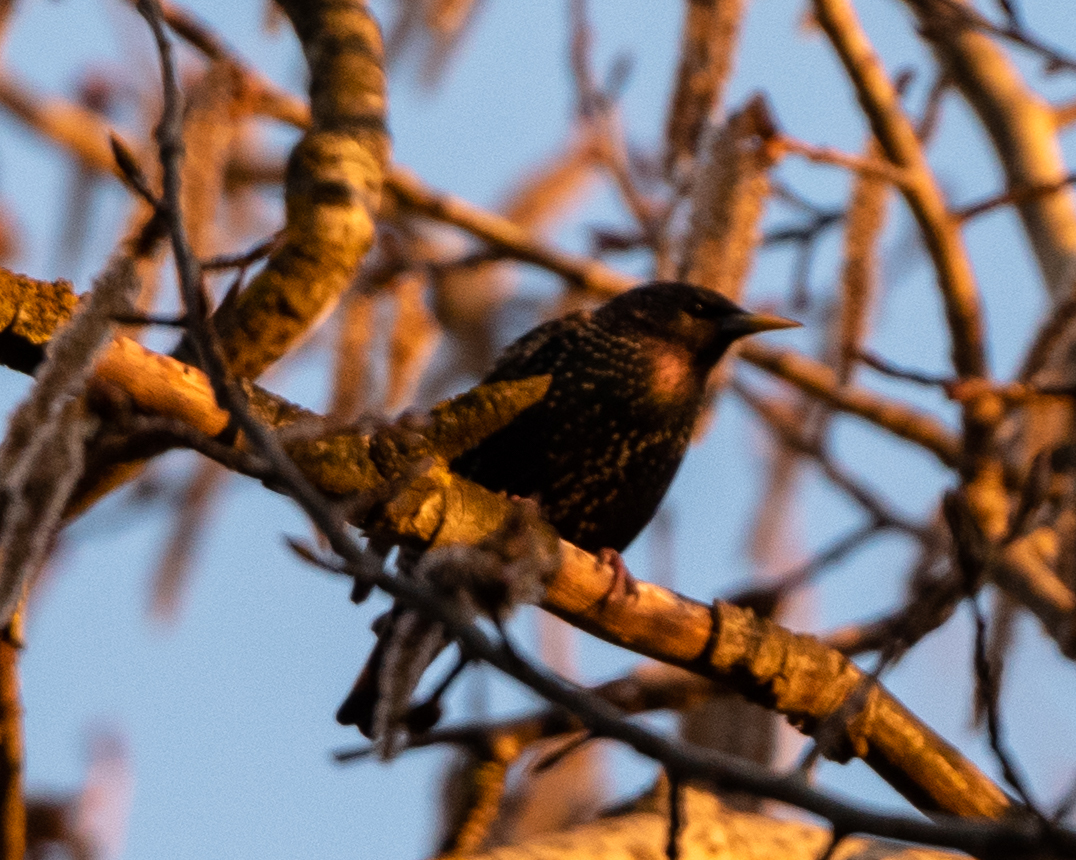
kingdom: Animalia
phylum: Chordata
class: Aves
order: Passeriformes
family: Sturnidae
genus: Sturnus
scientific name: Sturnus vulgaris
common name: Common starling
